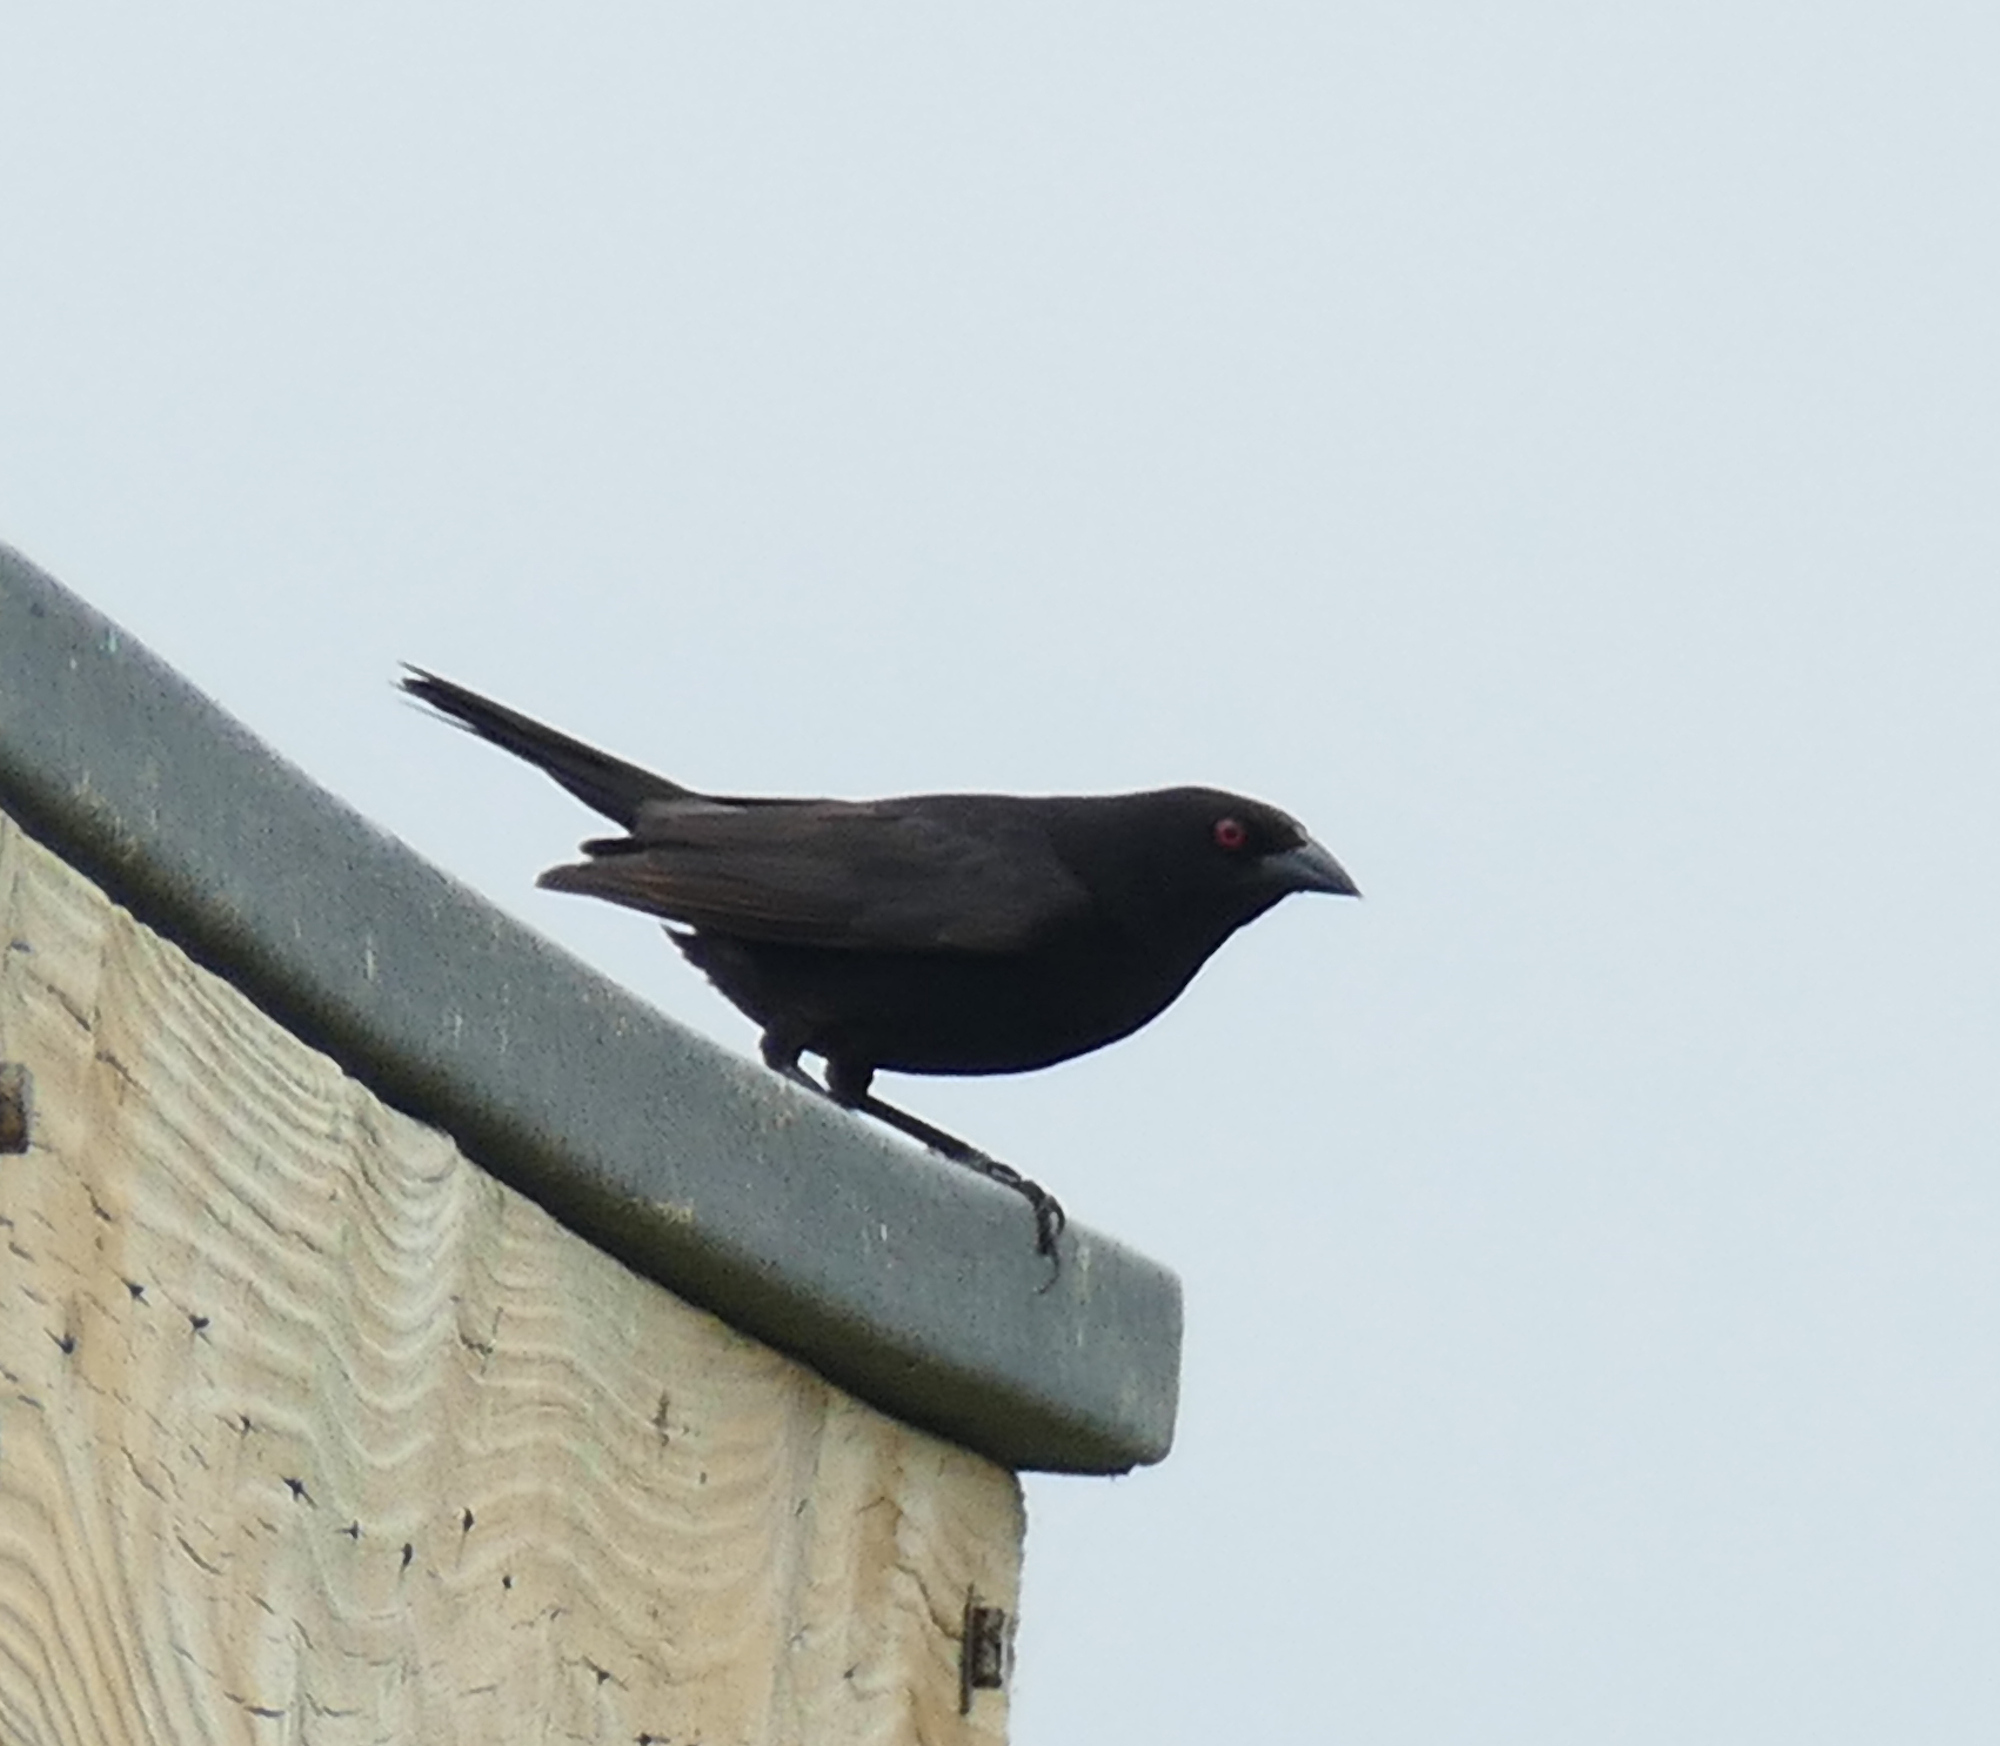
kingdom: Animalia
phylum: Chordata
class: Aves
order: Passeriformes
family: Icteridae
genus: Molothrus
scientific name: Molothrus aeneus
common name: Bronzed cowbird
